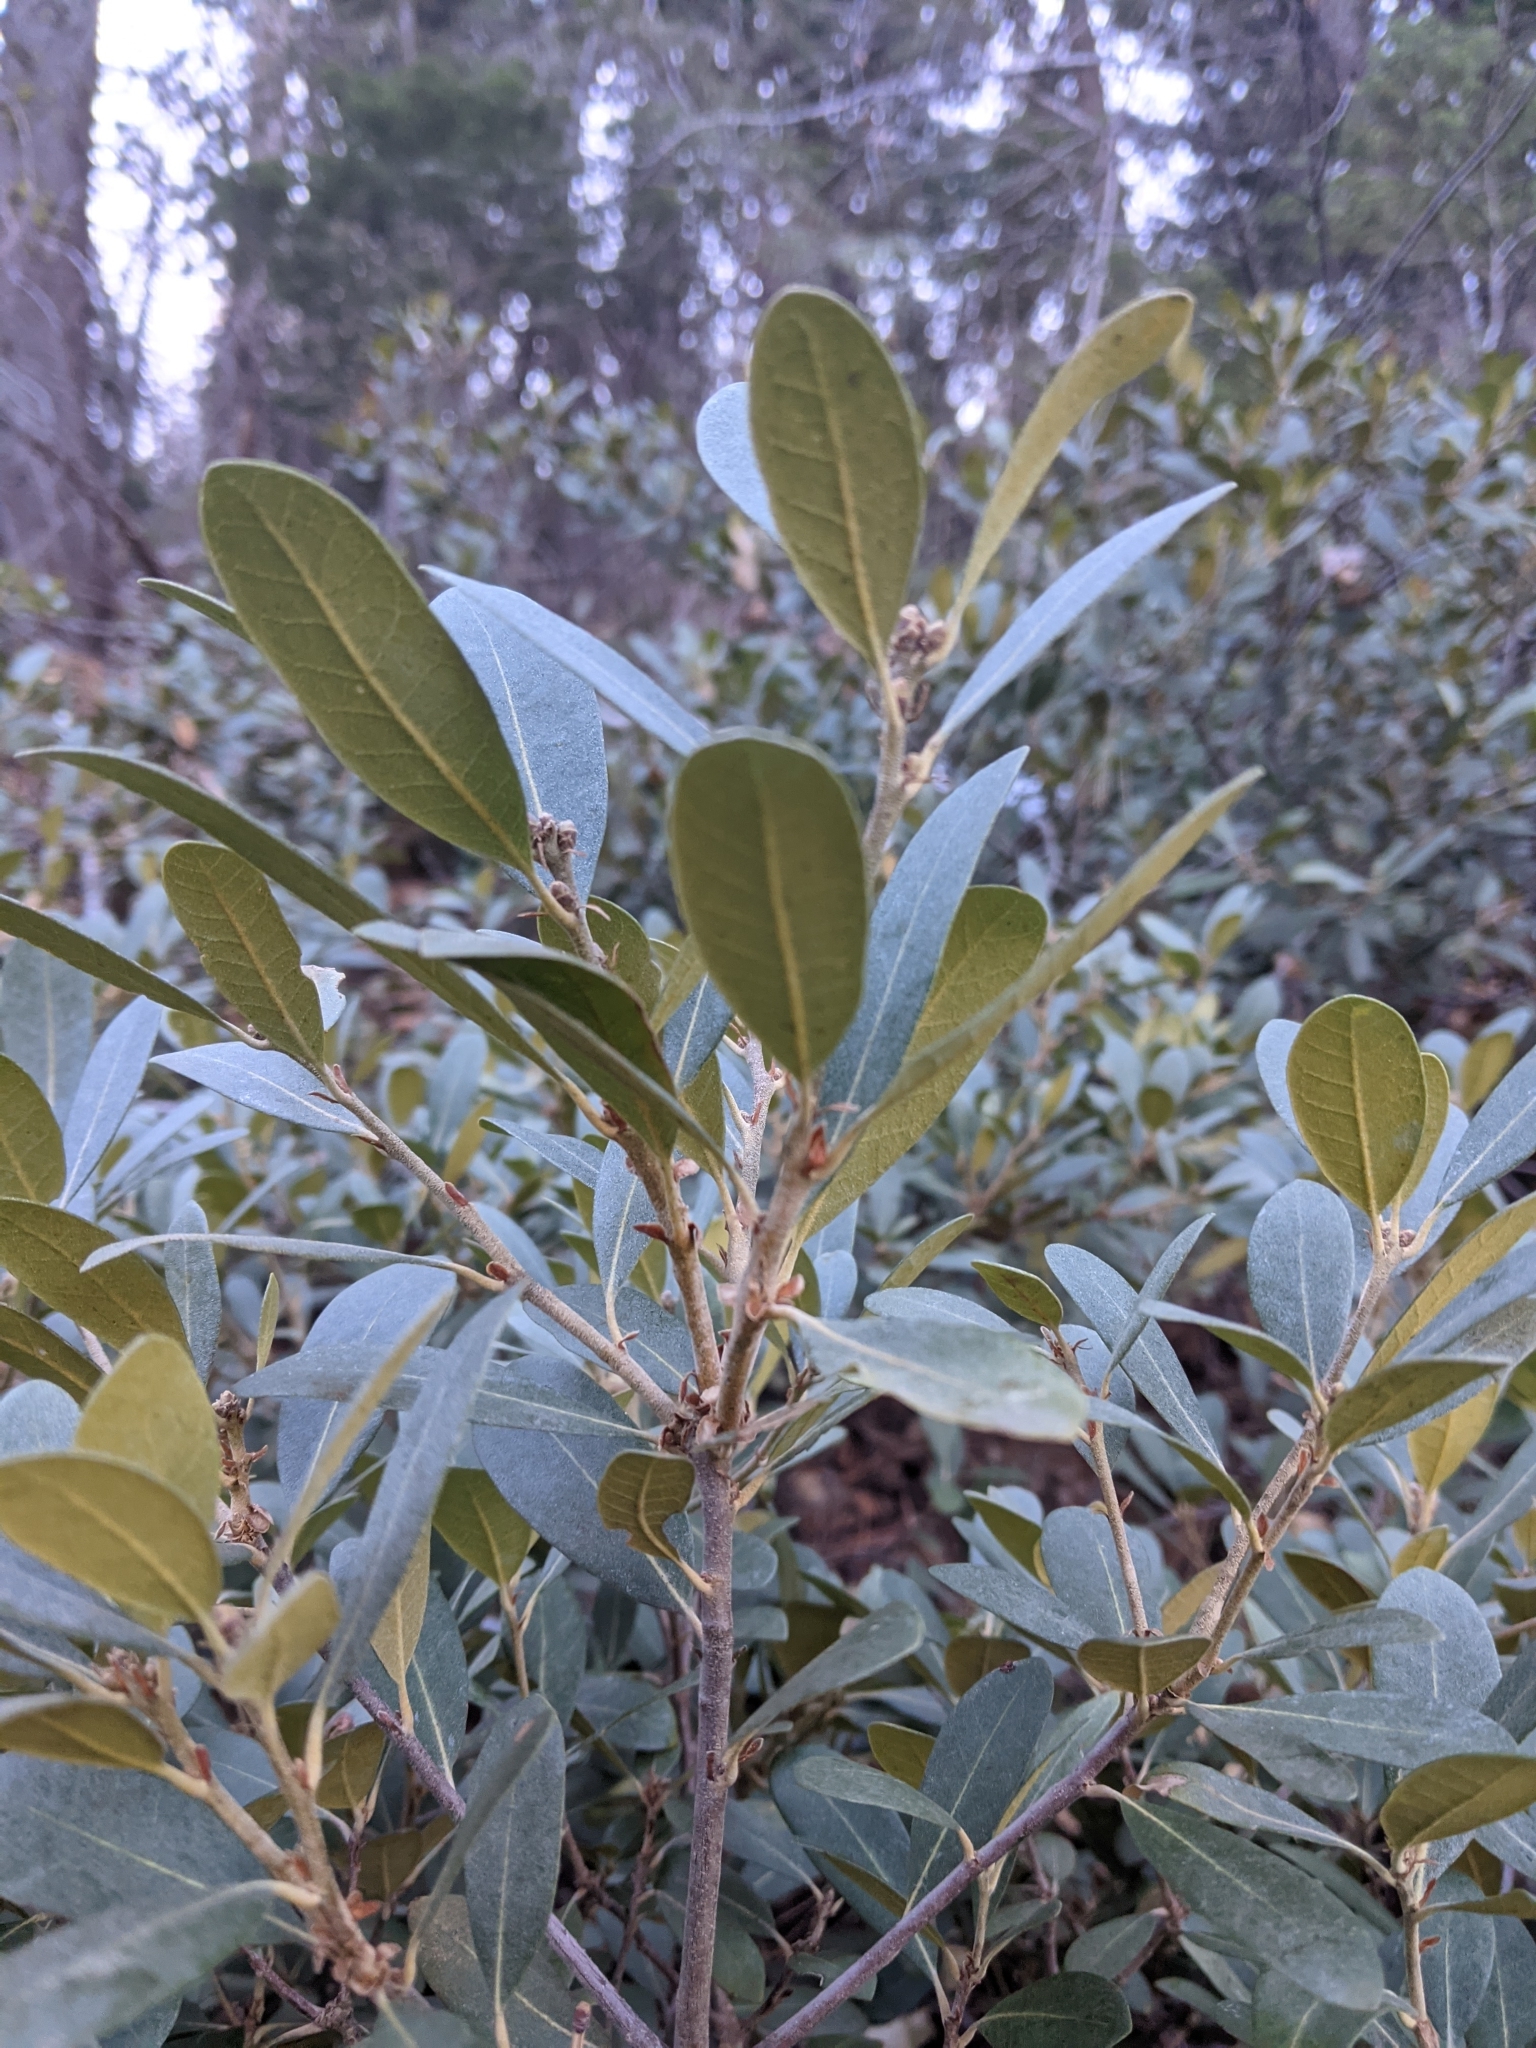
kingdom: Plantae
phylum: Tracheophyta
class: Magnoliopsida
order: Fagales
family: Fagaceae
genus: Chrysolepis
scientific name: Chrysolepis sempervirens
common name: Bush chinquapin
